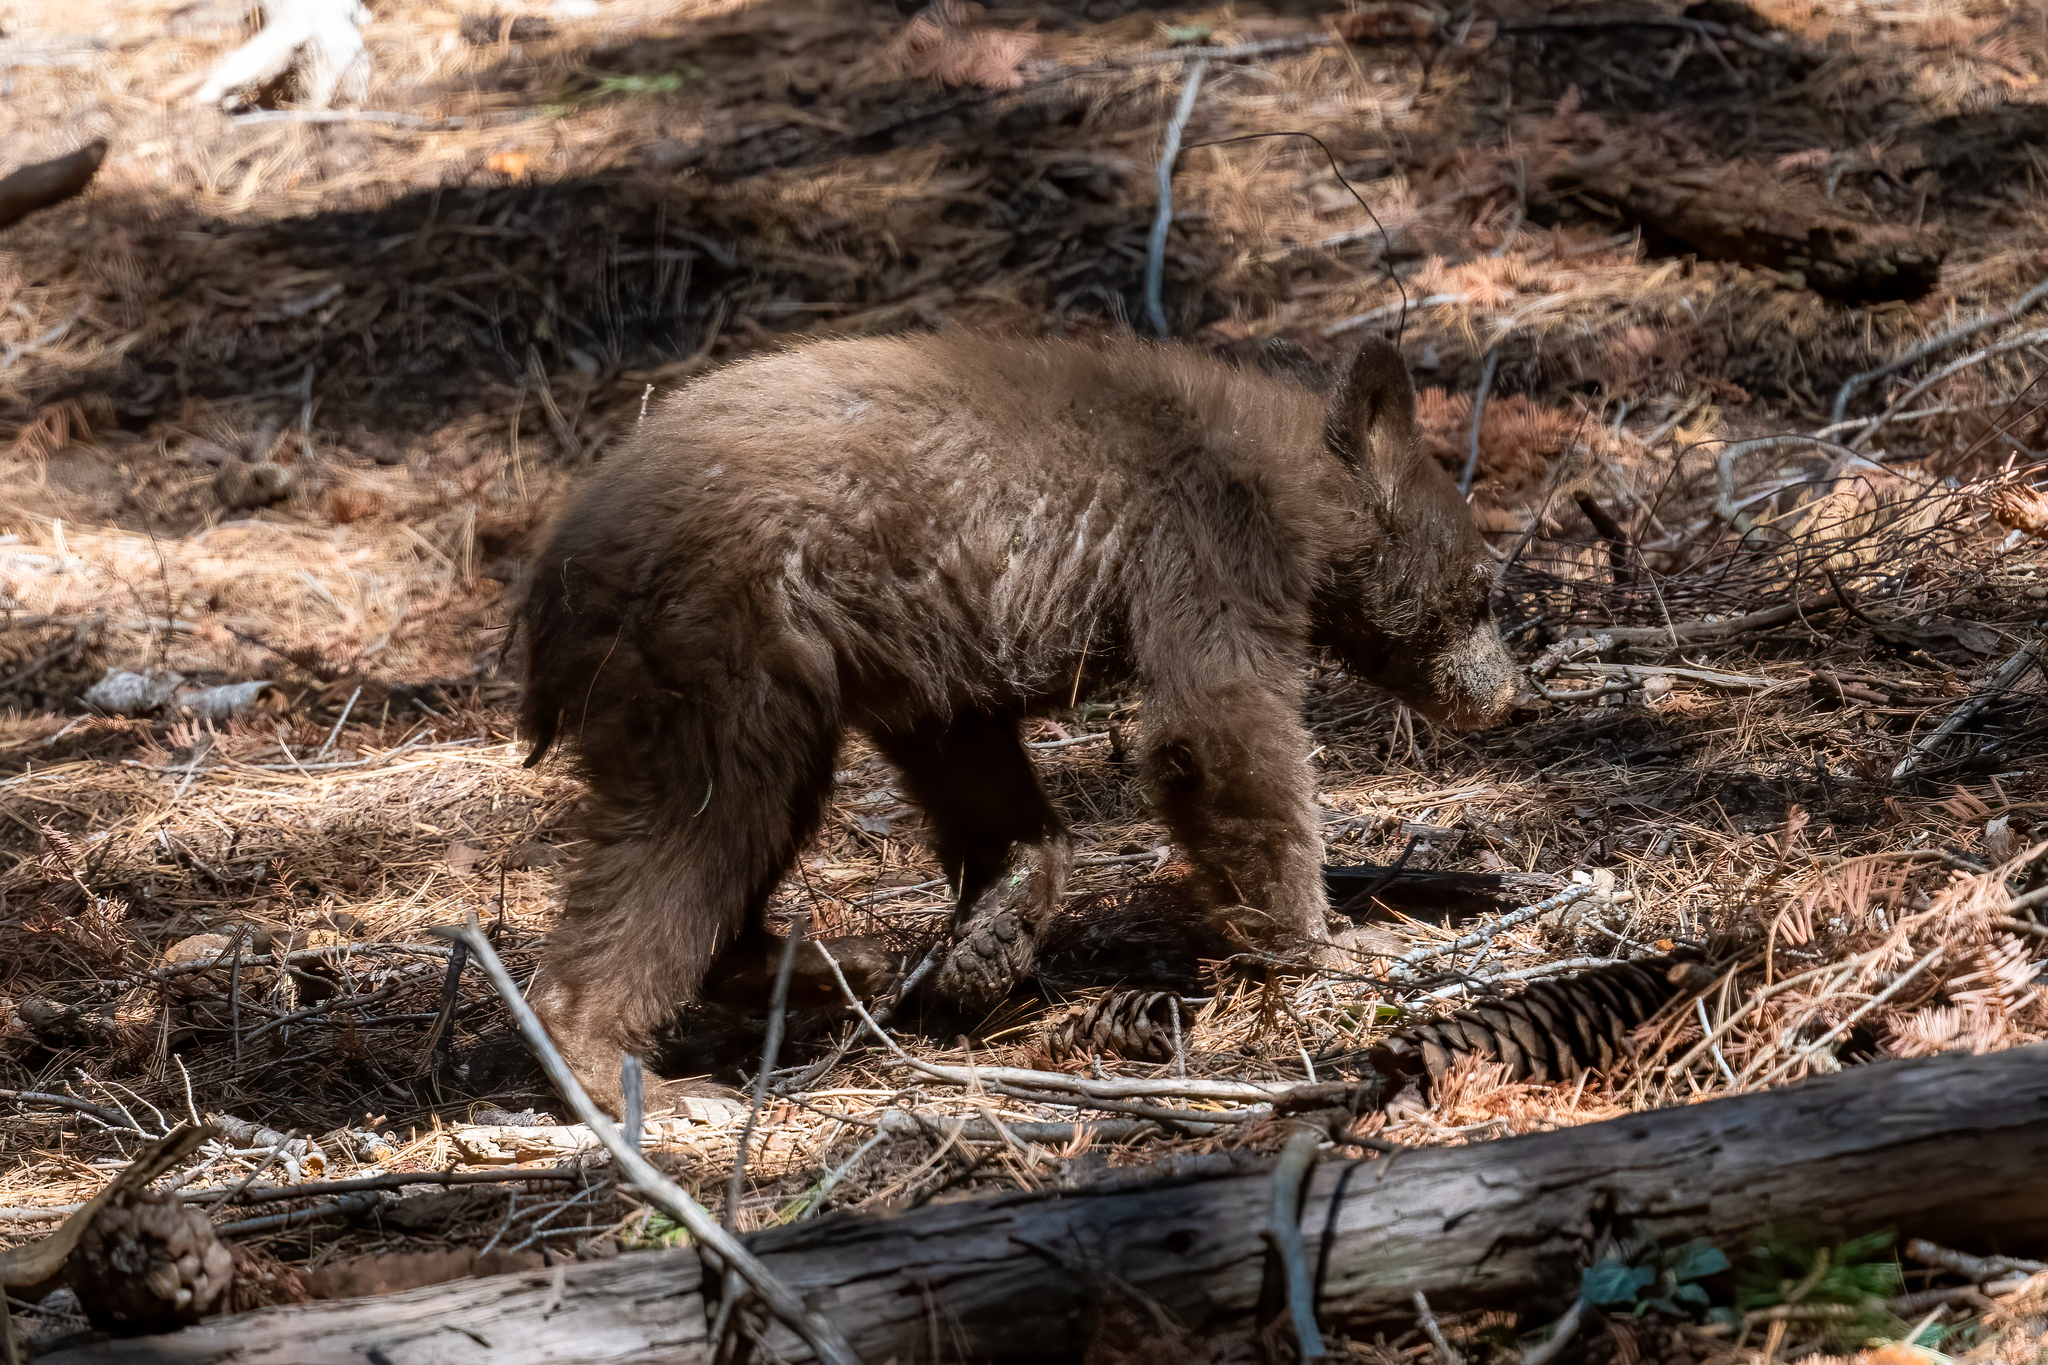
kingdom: Animalia
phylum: Chordata
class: Mammalia
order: Carnivora
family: Ursidae
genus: Ursus
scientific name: Ursus americanus
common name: American black bear
